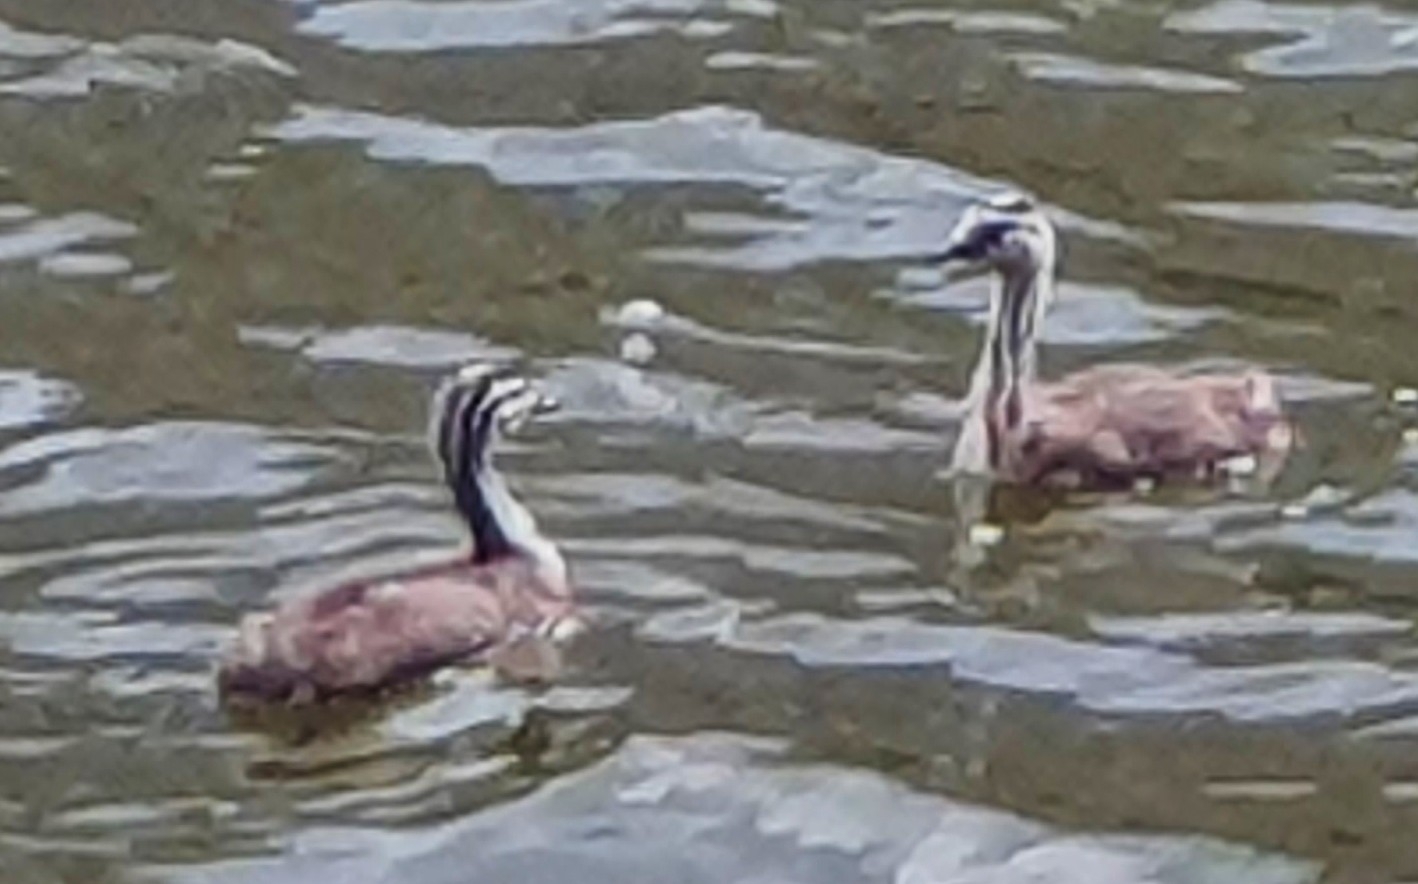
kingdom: Animalia
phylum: Chordata
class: Aves
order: Podicipediformes
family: Podicipedidae
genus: Podiceps
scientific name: Podiceps cristatus
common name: Great crested grebe
